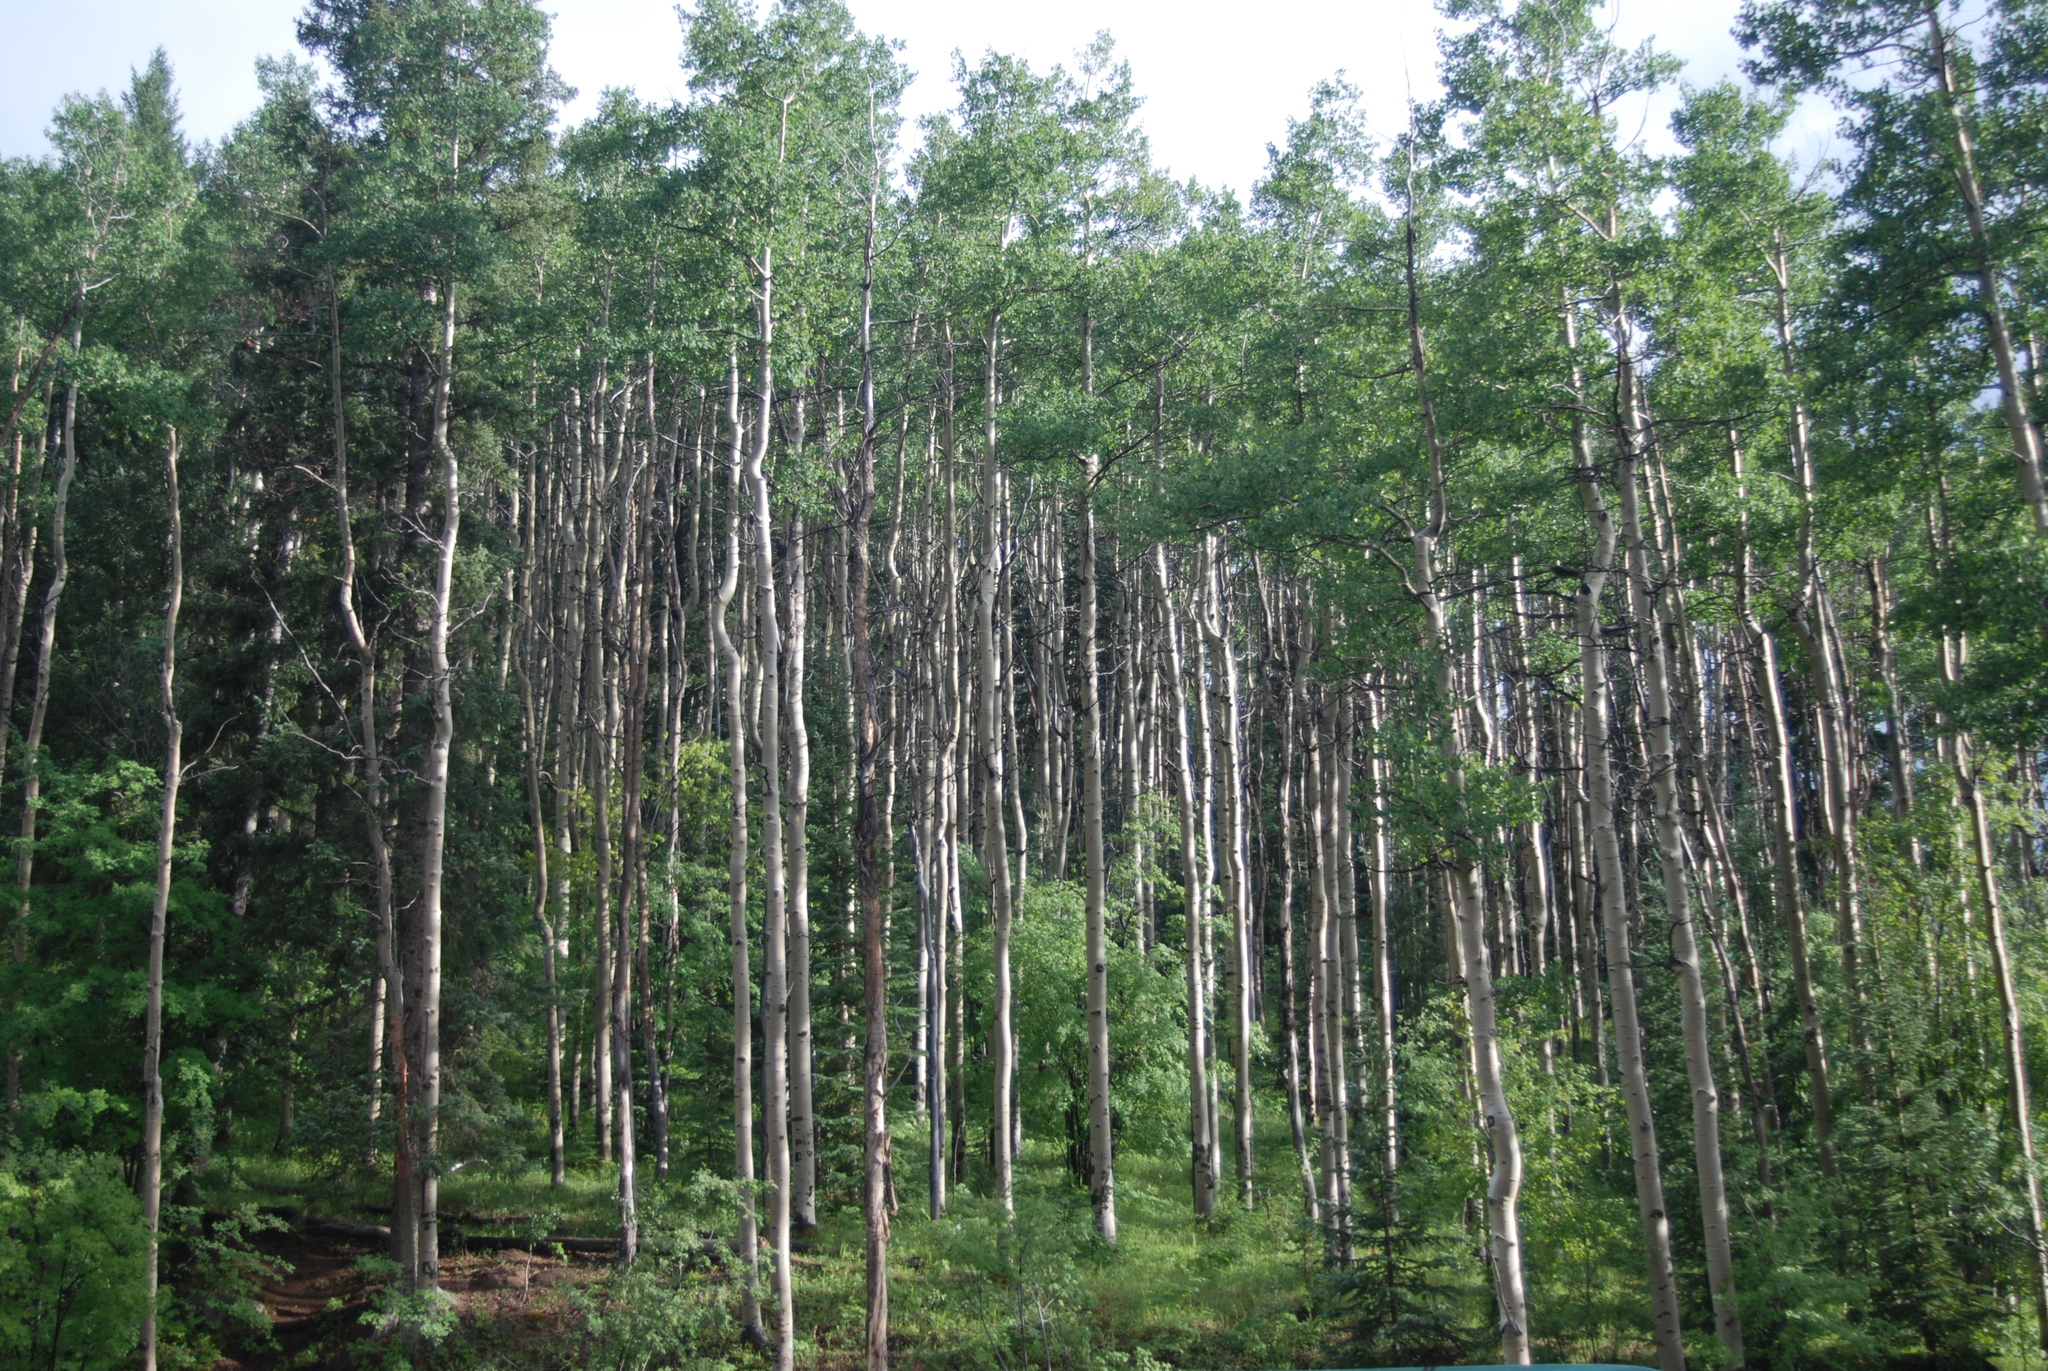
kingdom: Plantae
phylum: Tracheophyta
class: Magnoliopsida
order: Malpighiales
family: Salicaceae
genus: Populus
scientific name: Populus tremuloides
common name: Quaking aspen
